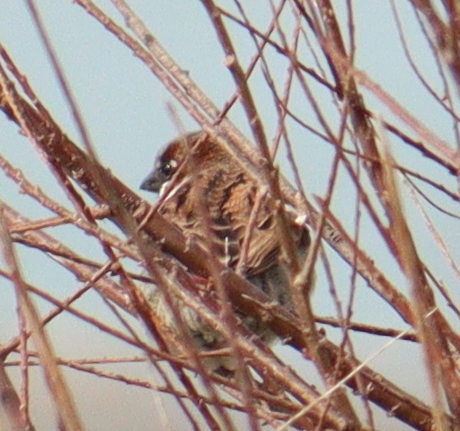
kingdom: Animalia
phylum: Chordata
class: Aves
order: Passeriformes
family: Passeridae
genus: Passer
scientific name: Passer domesticus
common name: House sparrow
